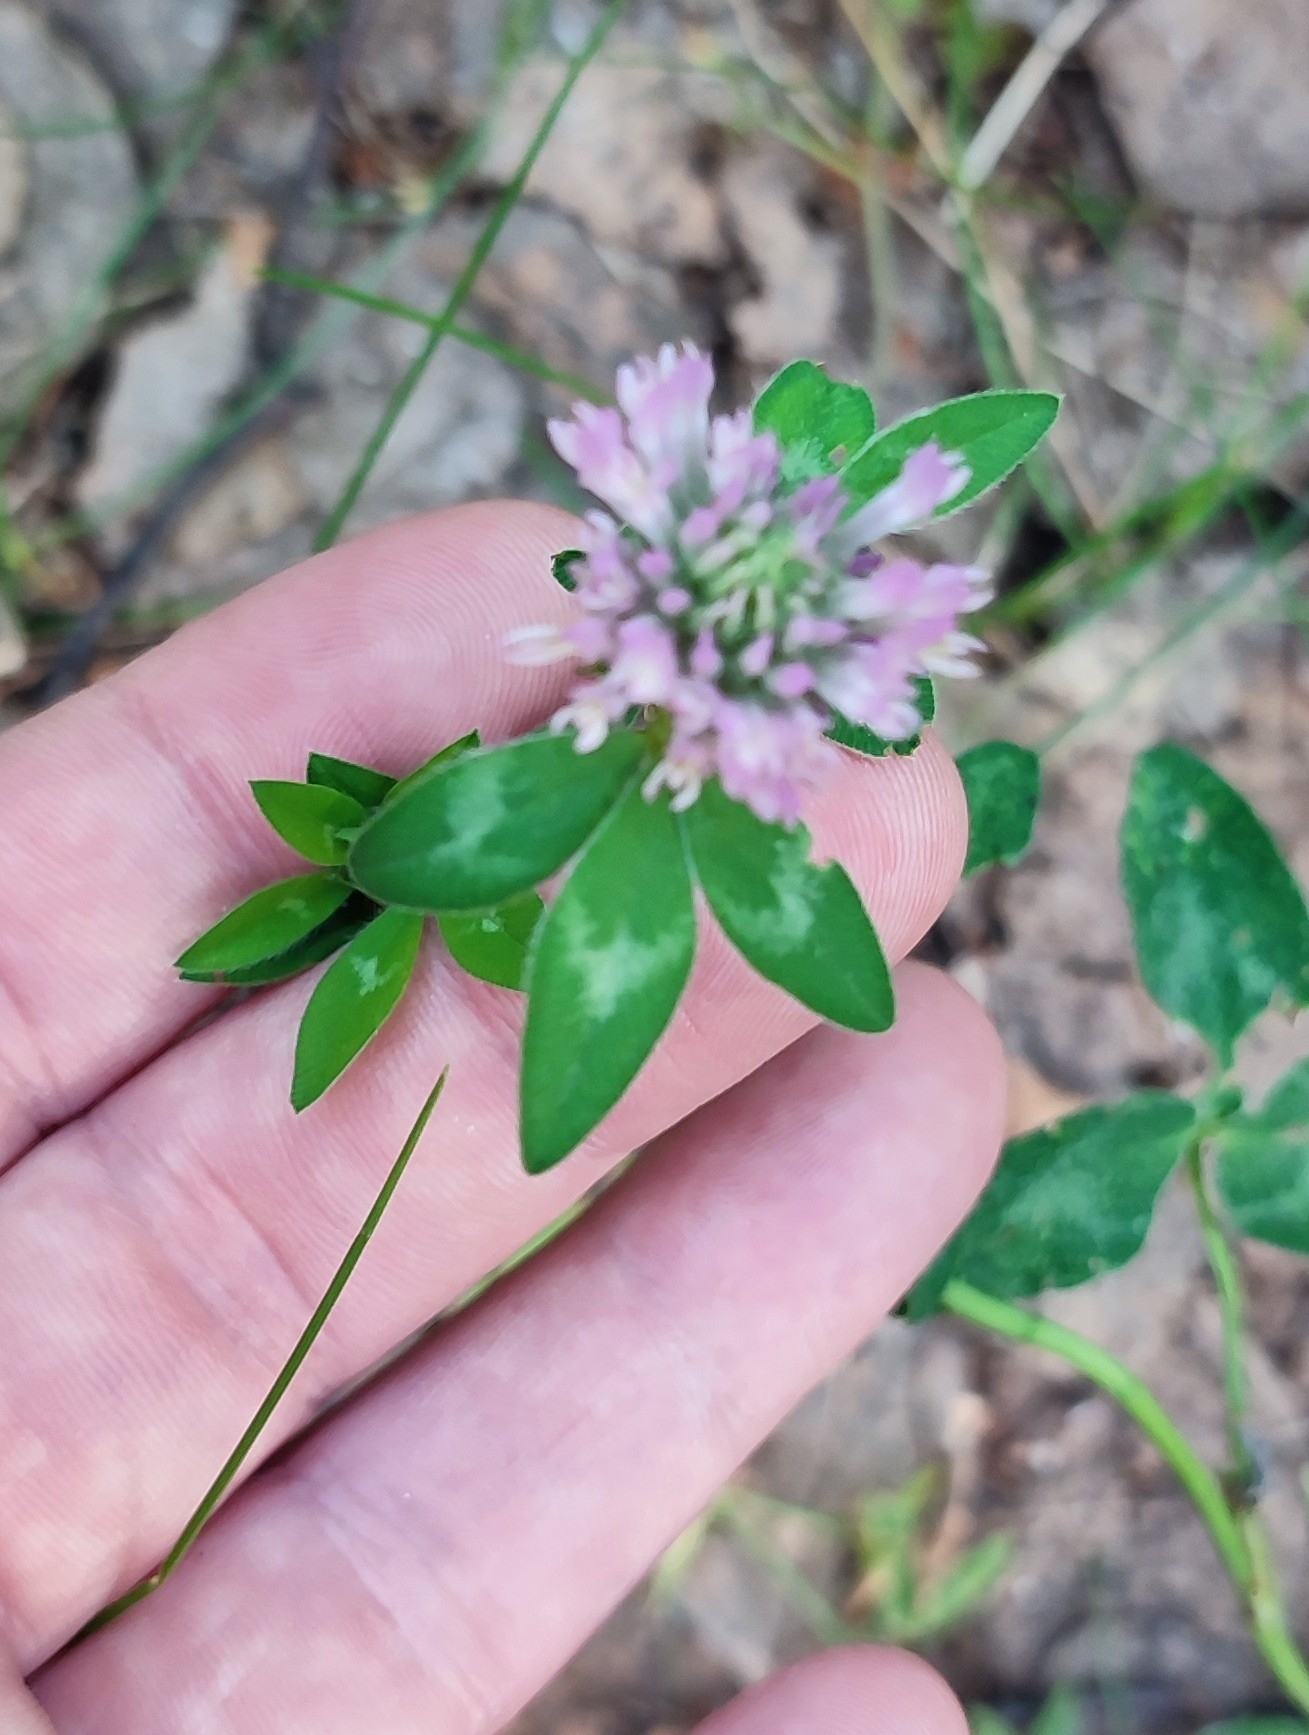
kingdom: Plantae
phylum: Tracheophyta
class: Magnoliopsida
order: Fabales
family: Fabaceae
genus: Trifolium
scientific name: Trifolium pratense
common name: Red clover
